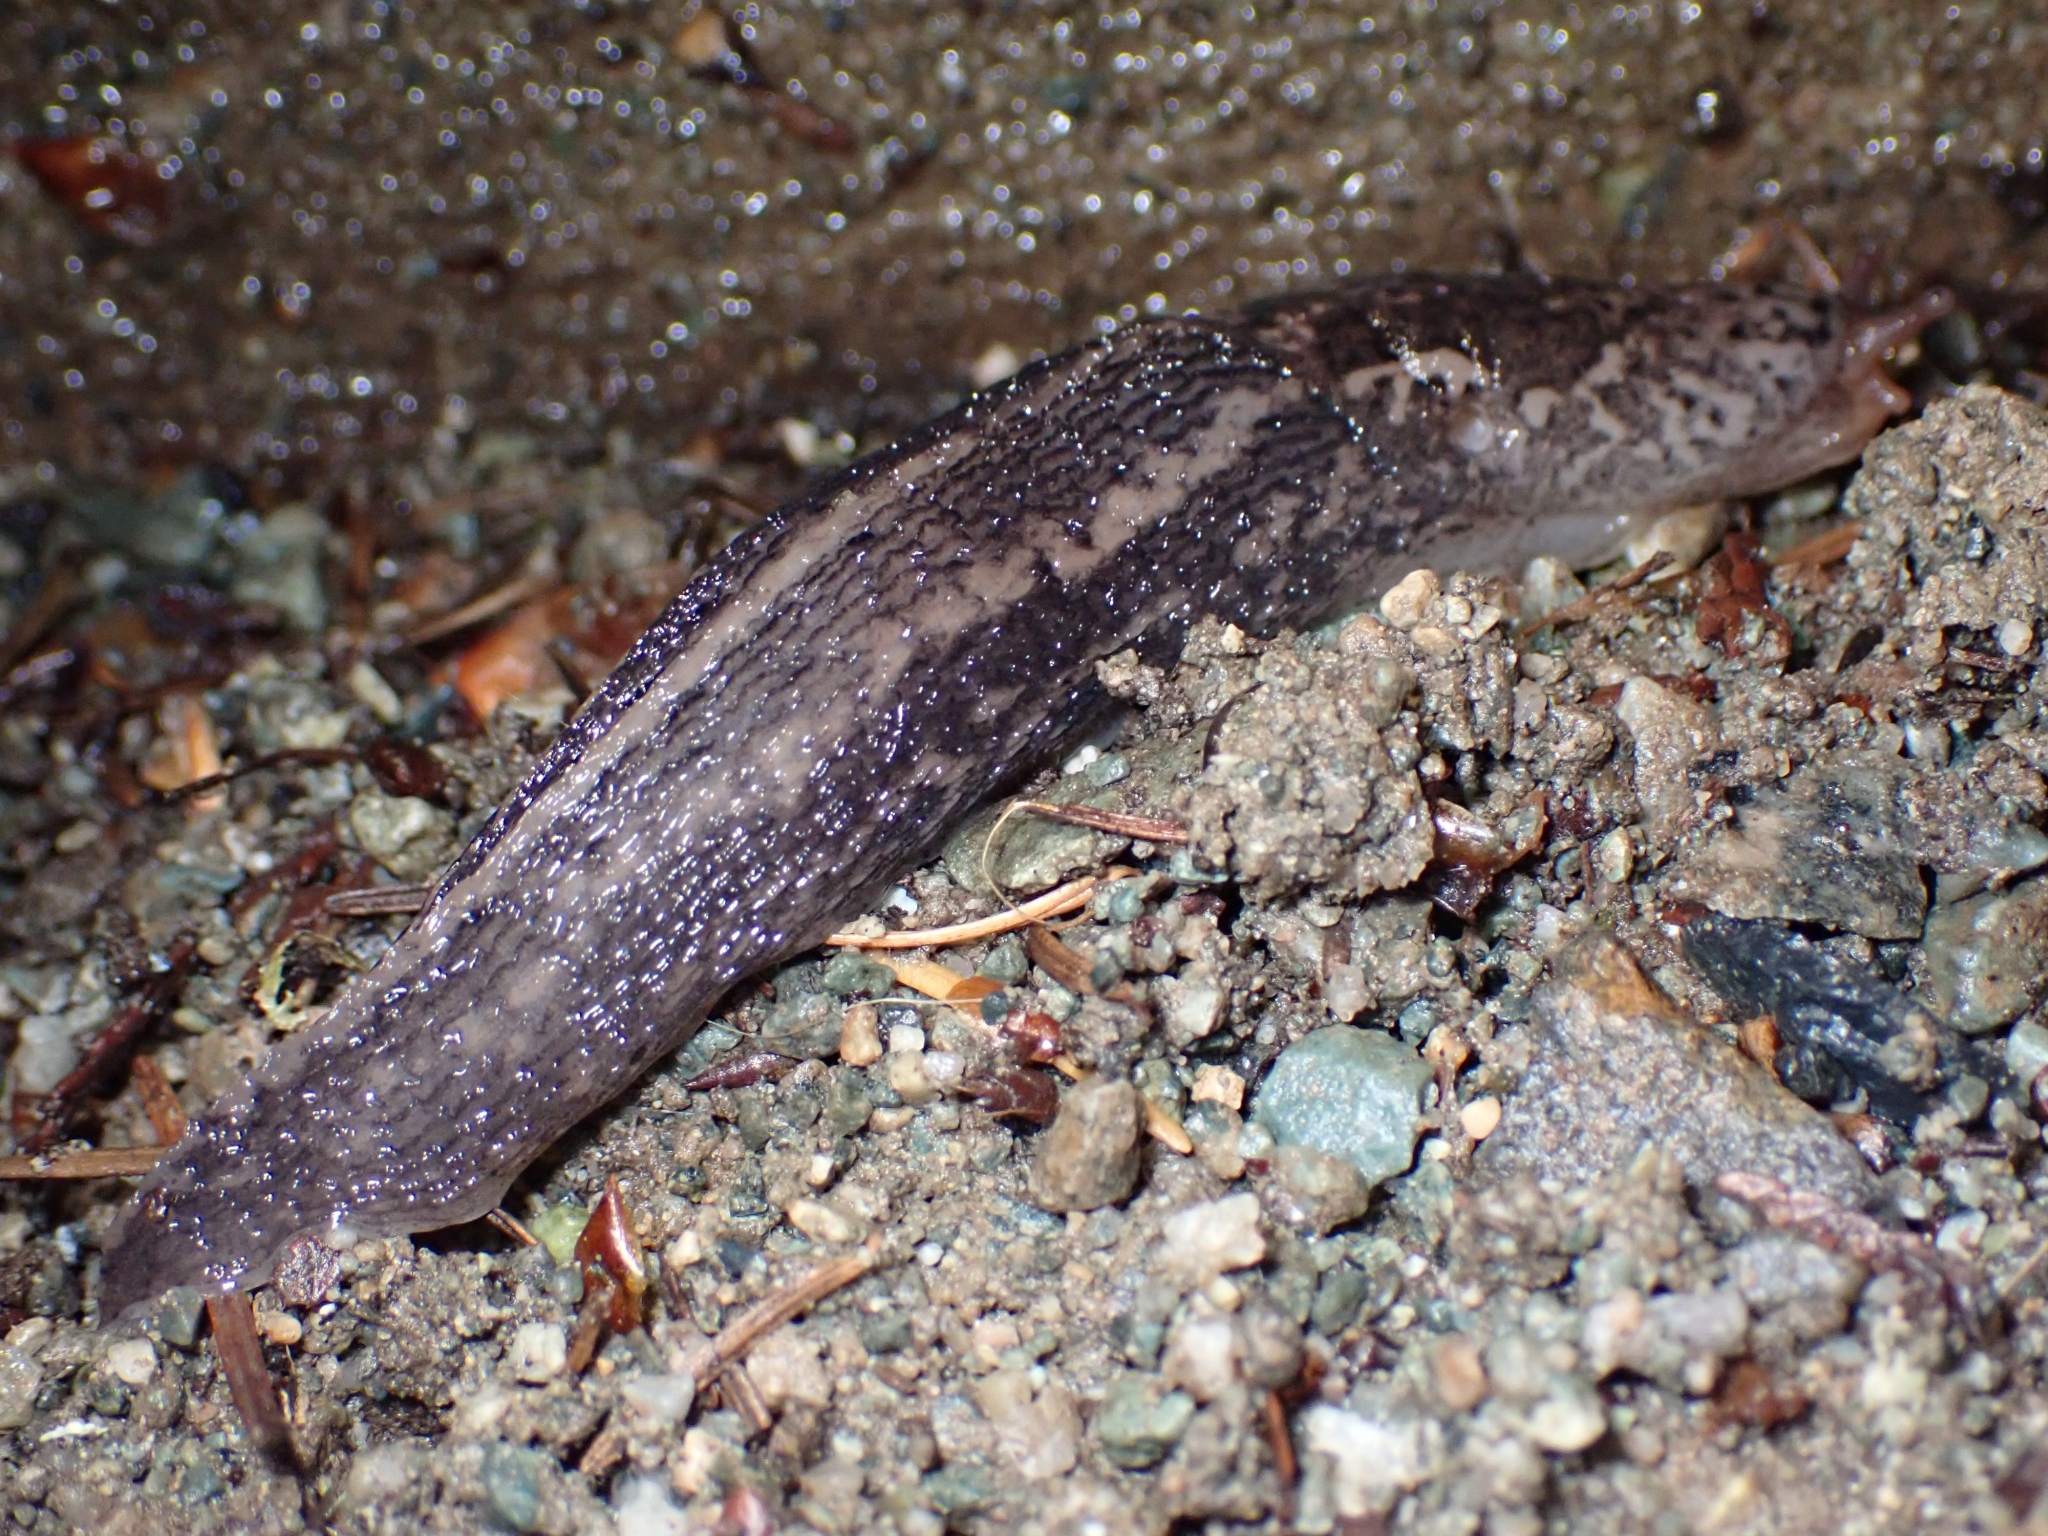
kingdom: Animalia
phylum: Mollusca
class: Gastropoda
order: Stylommatophora
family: Limacidae
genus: Limax
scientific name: Limax maximus
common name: Great grey slug
